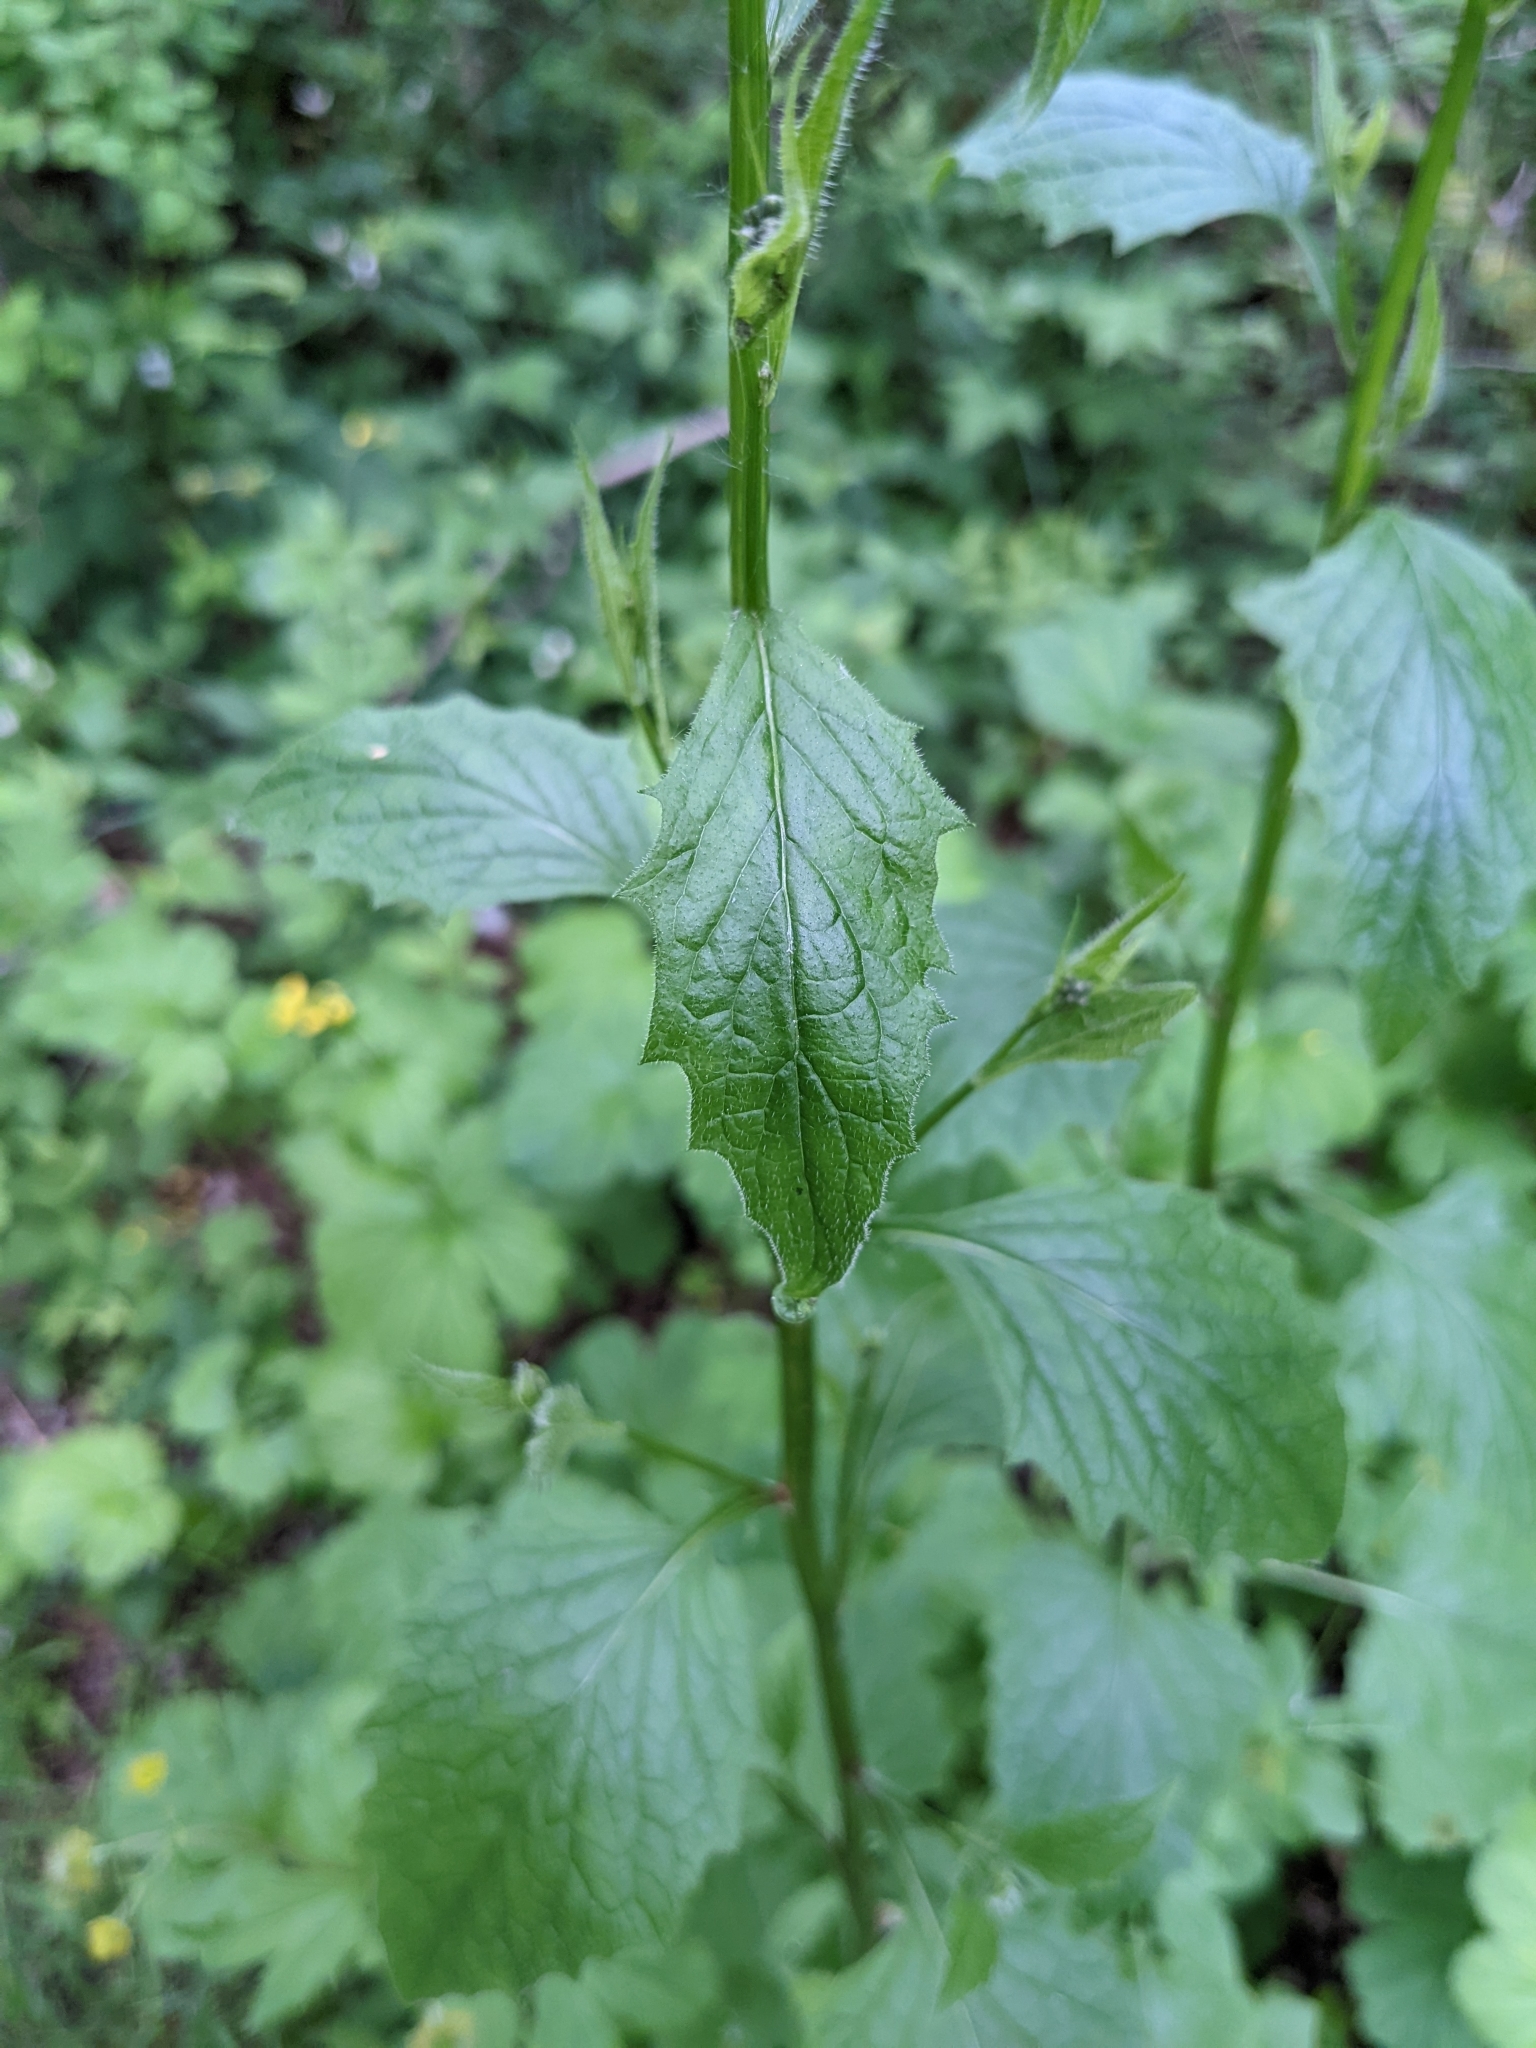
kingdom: Plantae
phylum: Tracheophyta
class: Magnoliopsida
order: Asterales
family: Asteraceae
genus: Lapsana
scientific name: Lapsana communis
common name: Nipplewort
